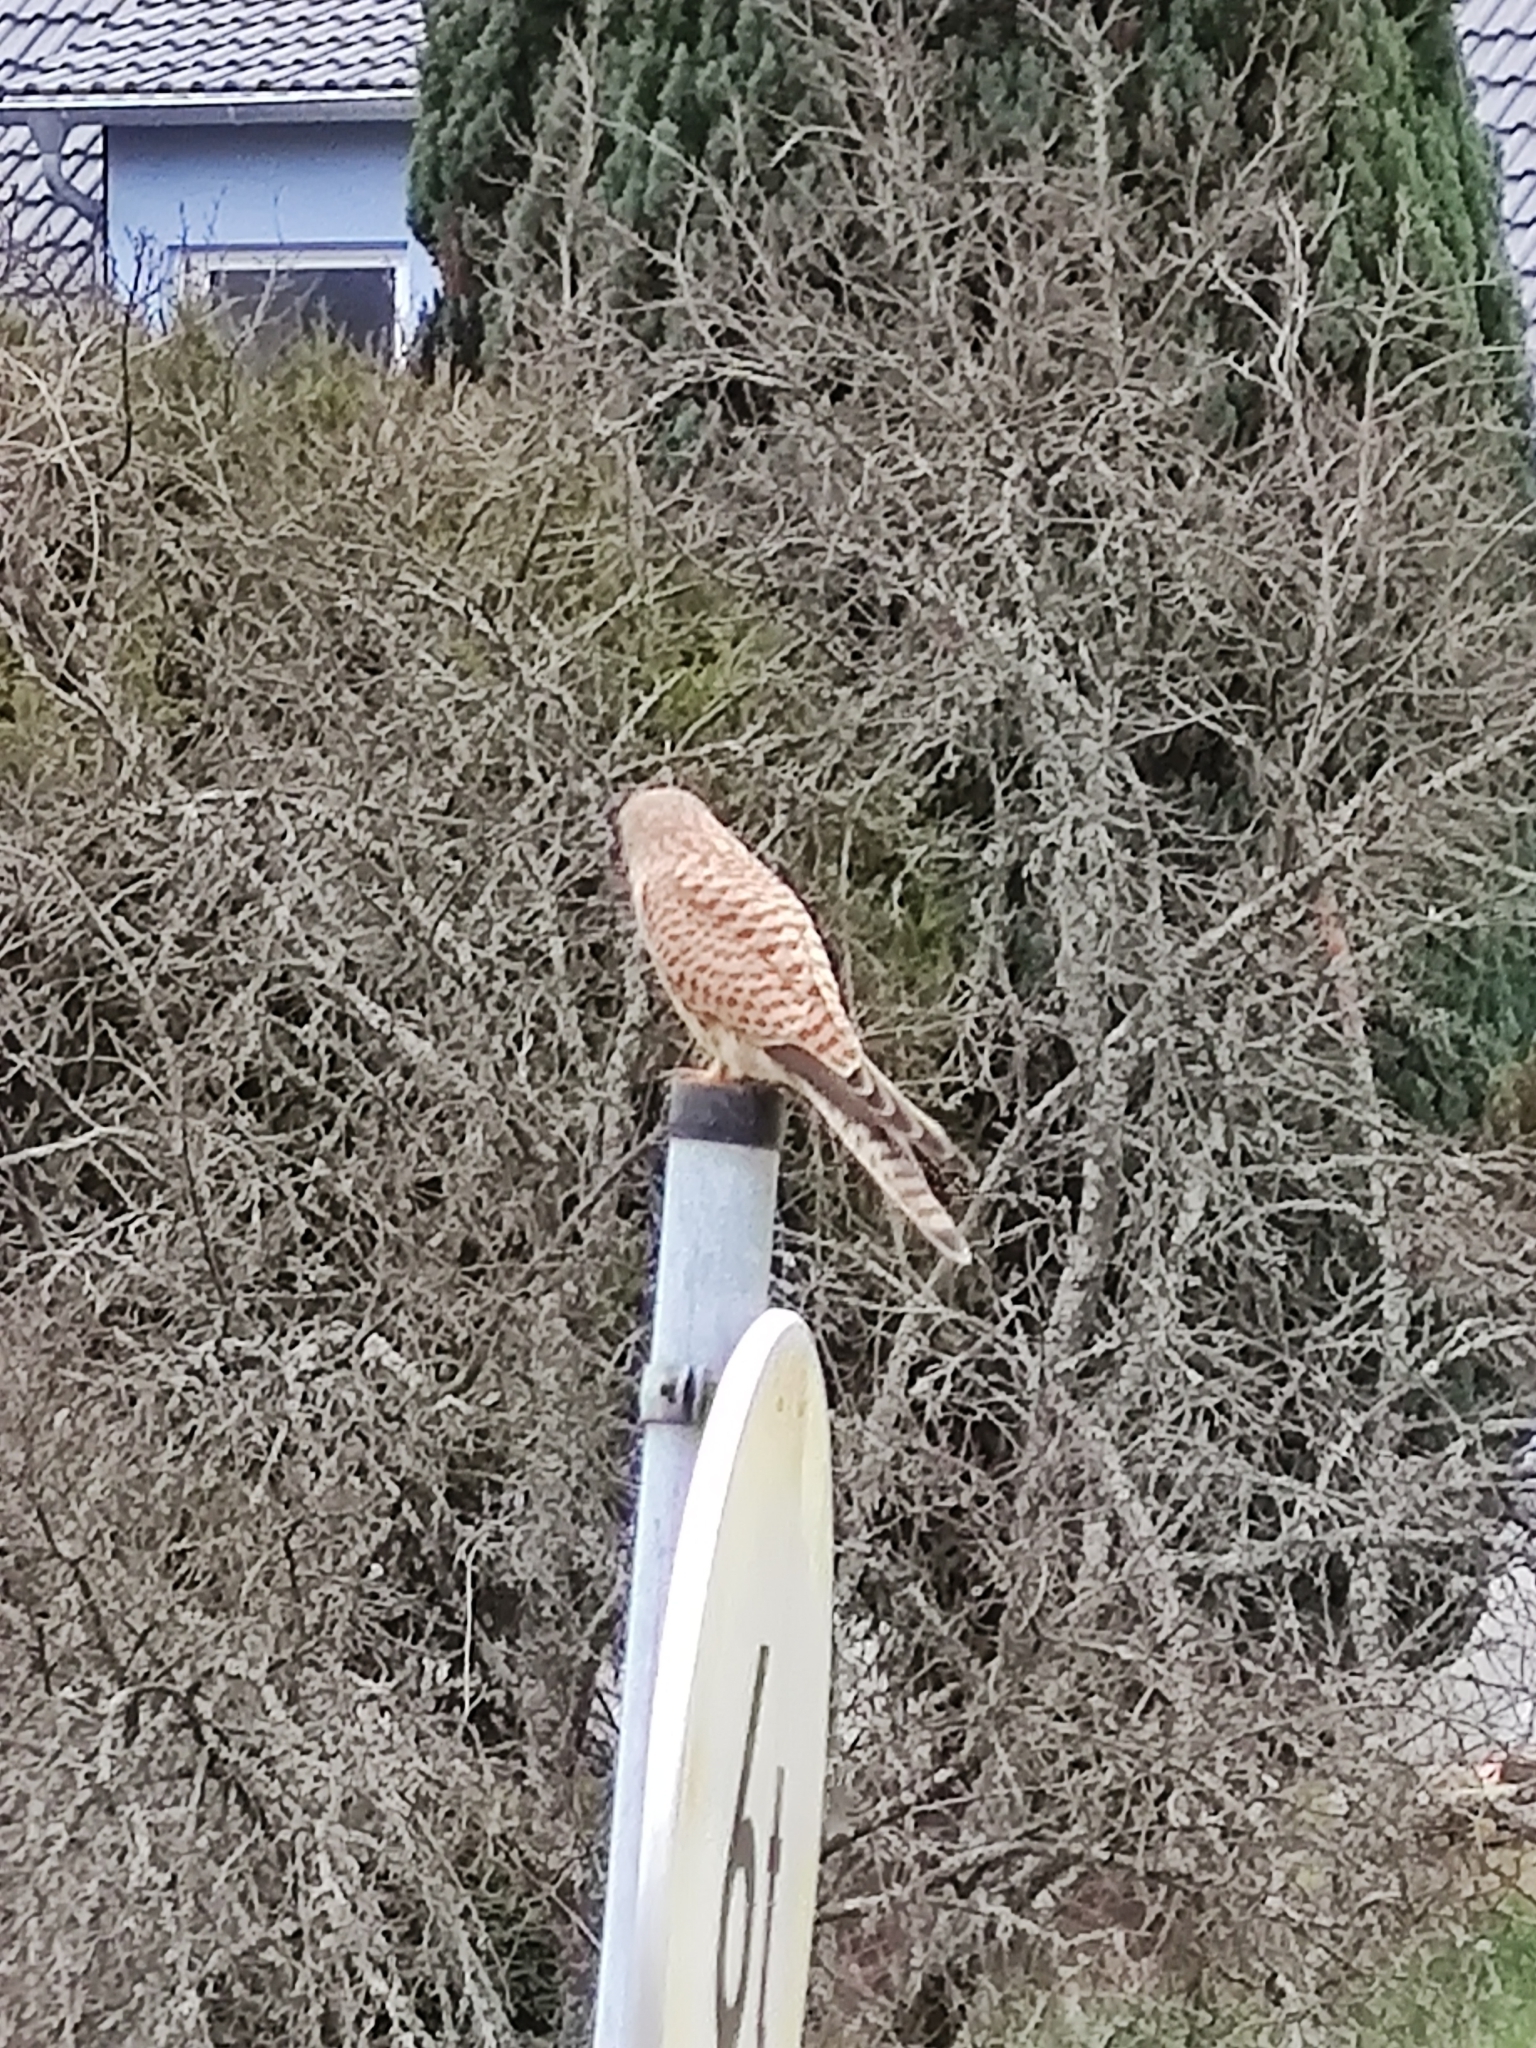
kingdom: Animalia
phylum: Chordata
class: Aves
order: Falconiformes
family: Falconidae
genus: Falco
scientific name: Falco tinnunculus
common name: Common kestrel
